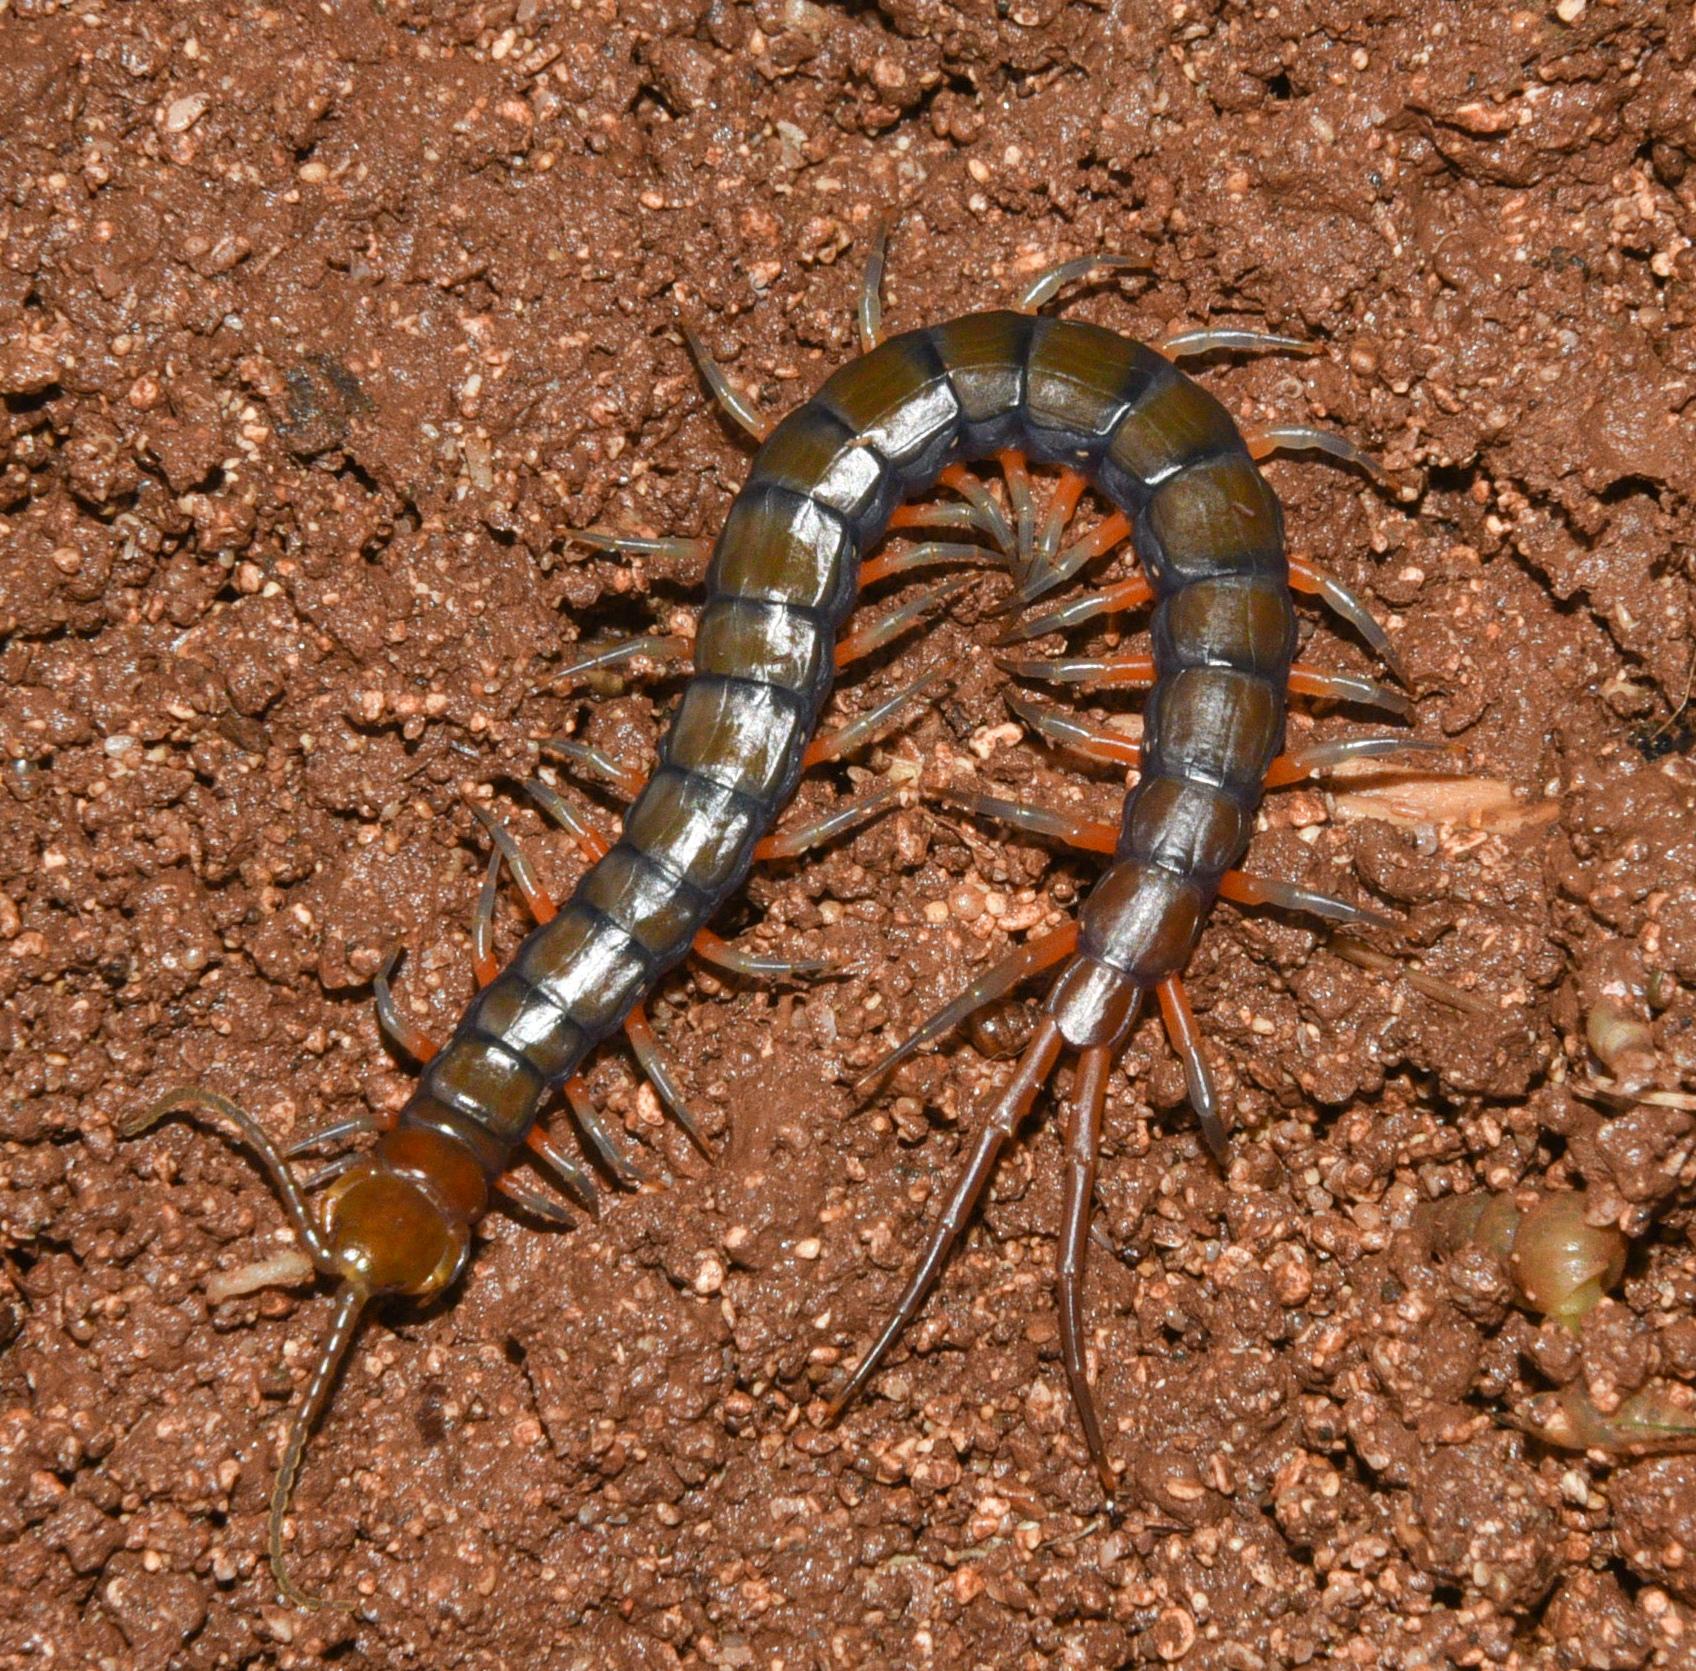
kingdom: Animalia
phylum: Arthropoda
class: Chilopoda
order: Scolopendromorpha
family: Scolopendridae
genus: Scolopendra
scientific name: Scolopendra subspinipes
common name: Centipede
